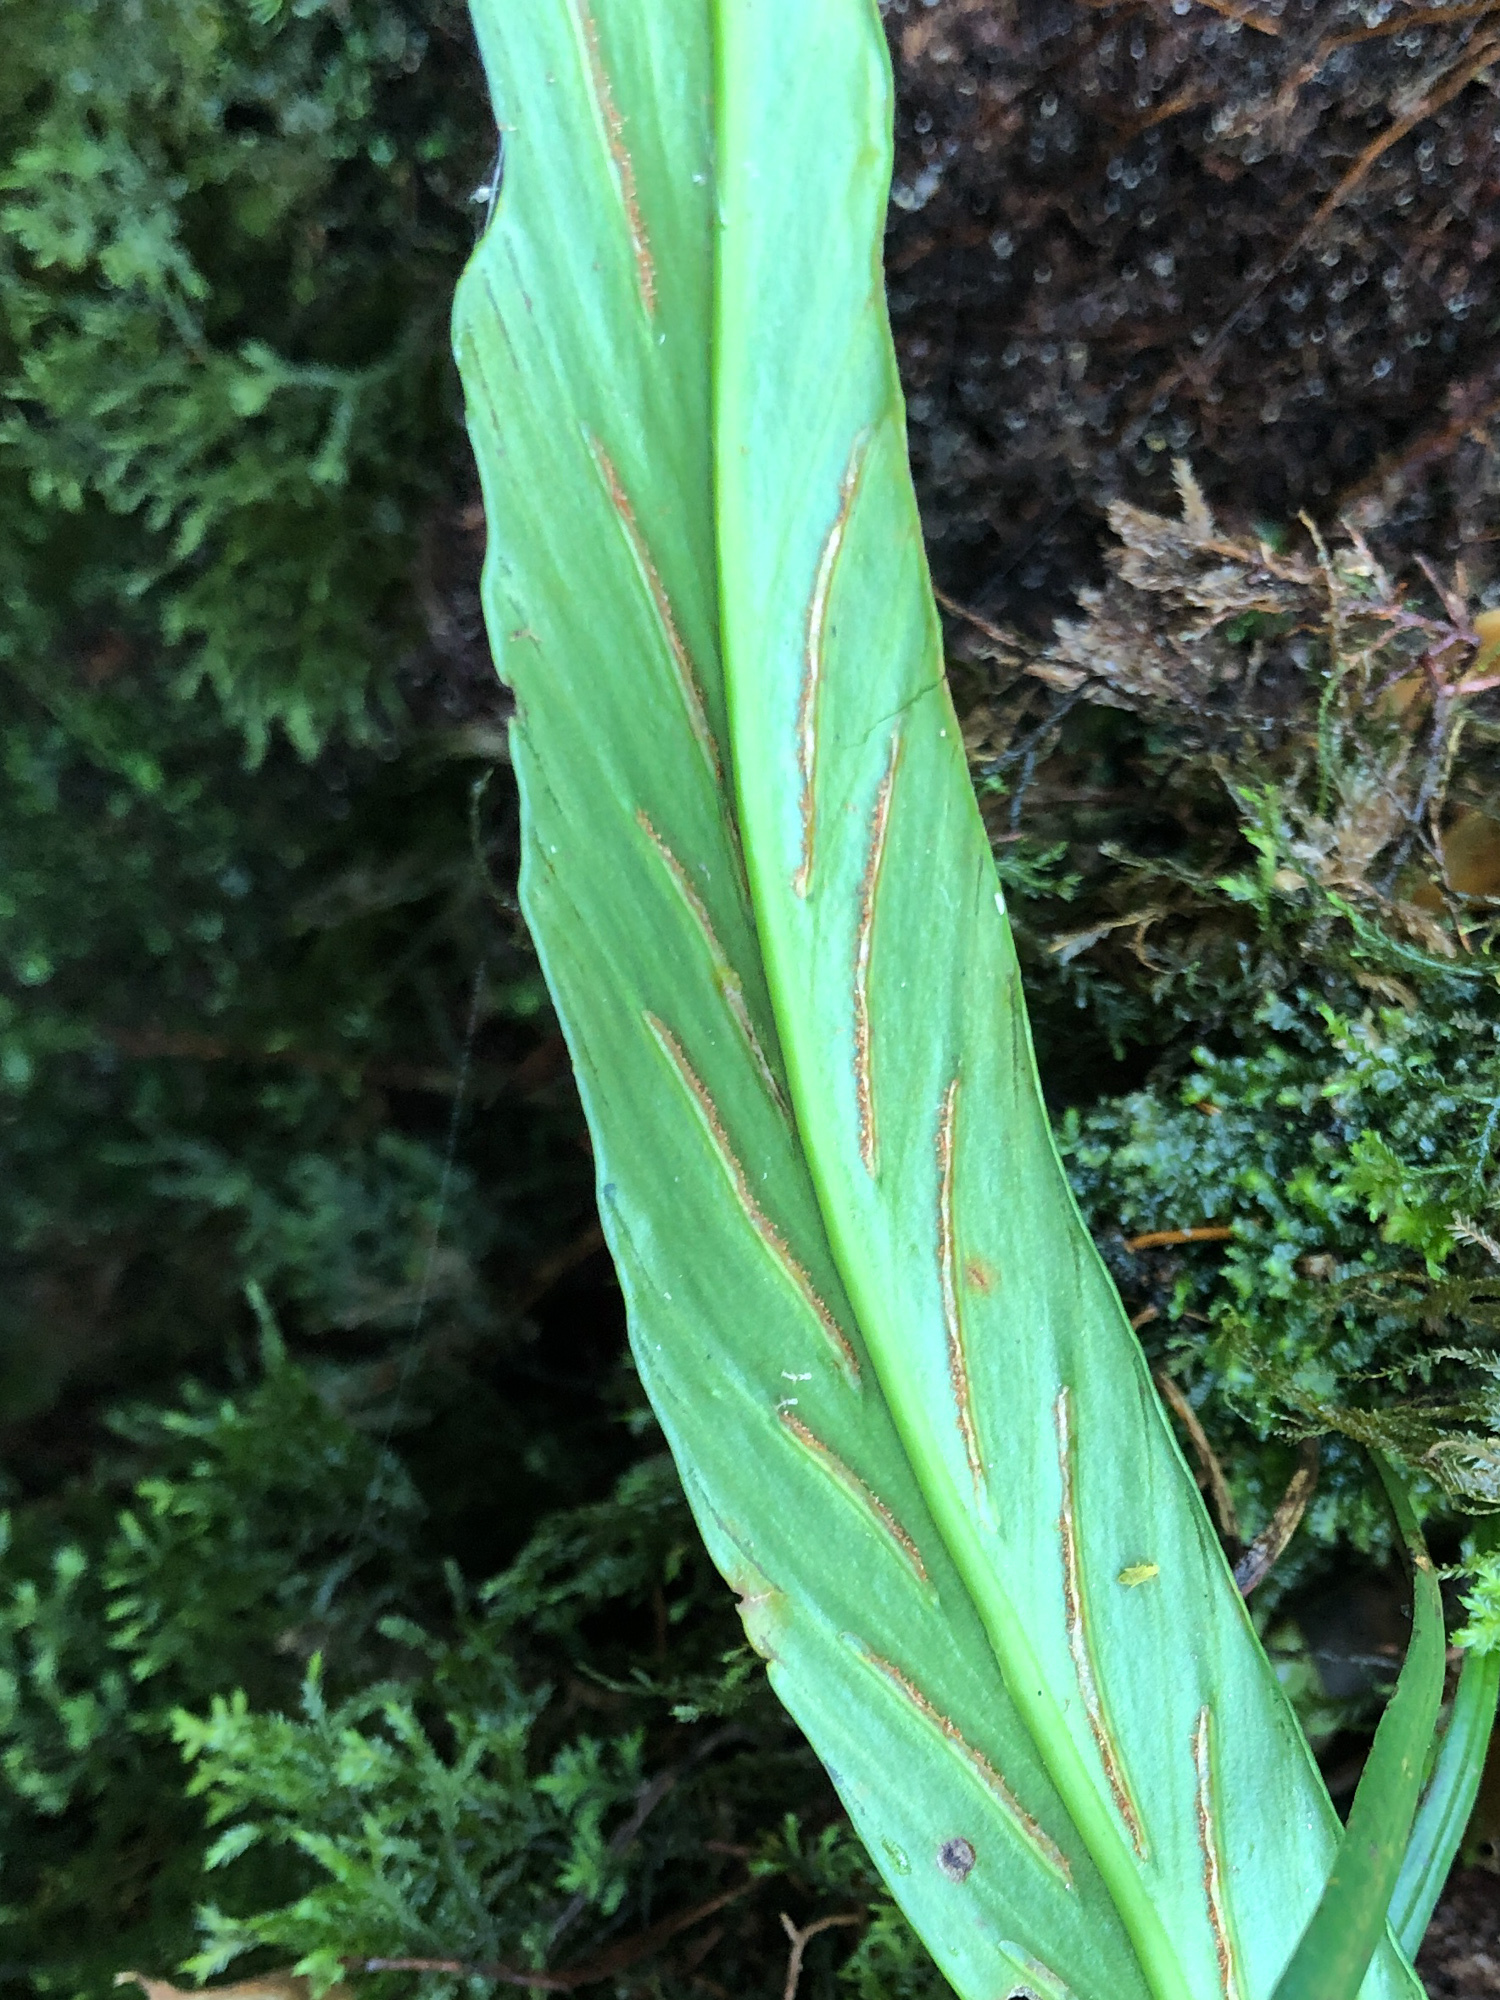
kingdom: Plantae
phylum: Tracheophyta
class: Polypodiopsida
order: Polypodiales
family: Aspleniaceae
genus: Asplenium
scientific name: Asplenium ensiforme
